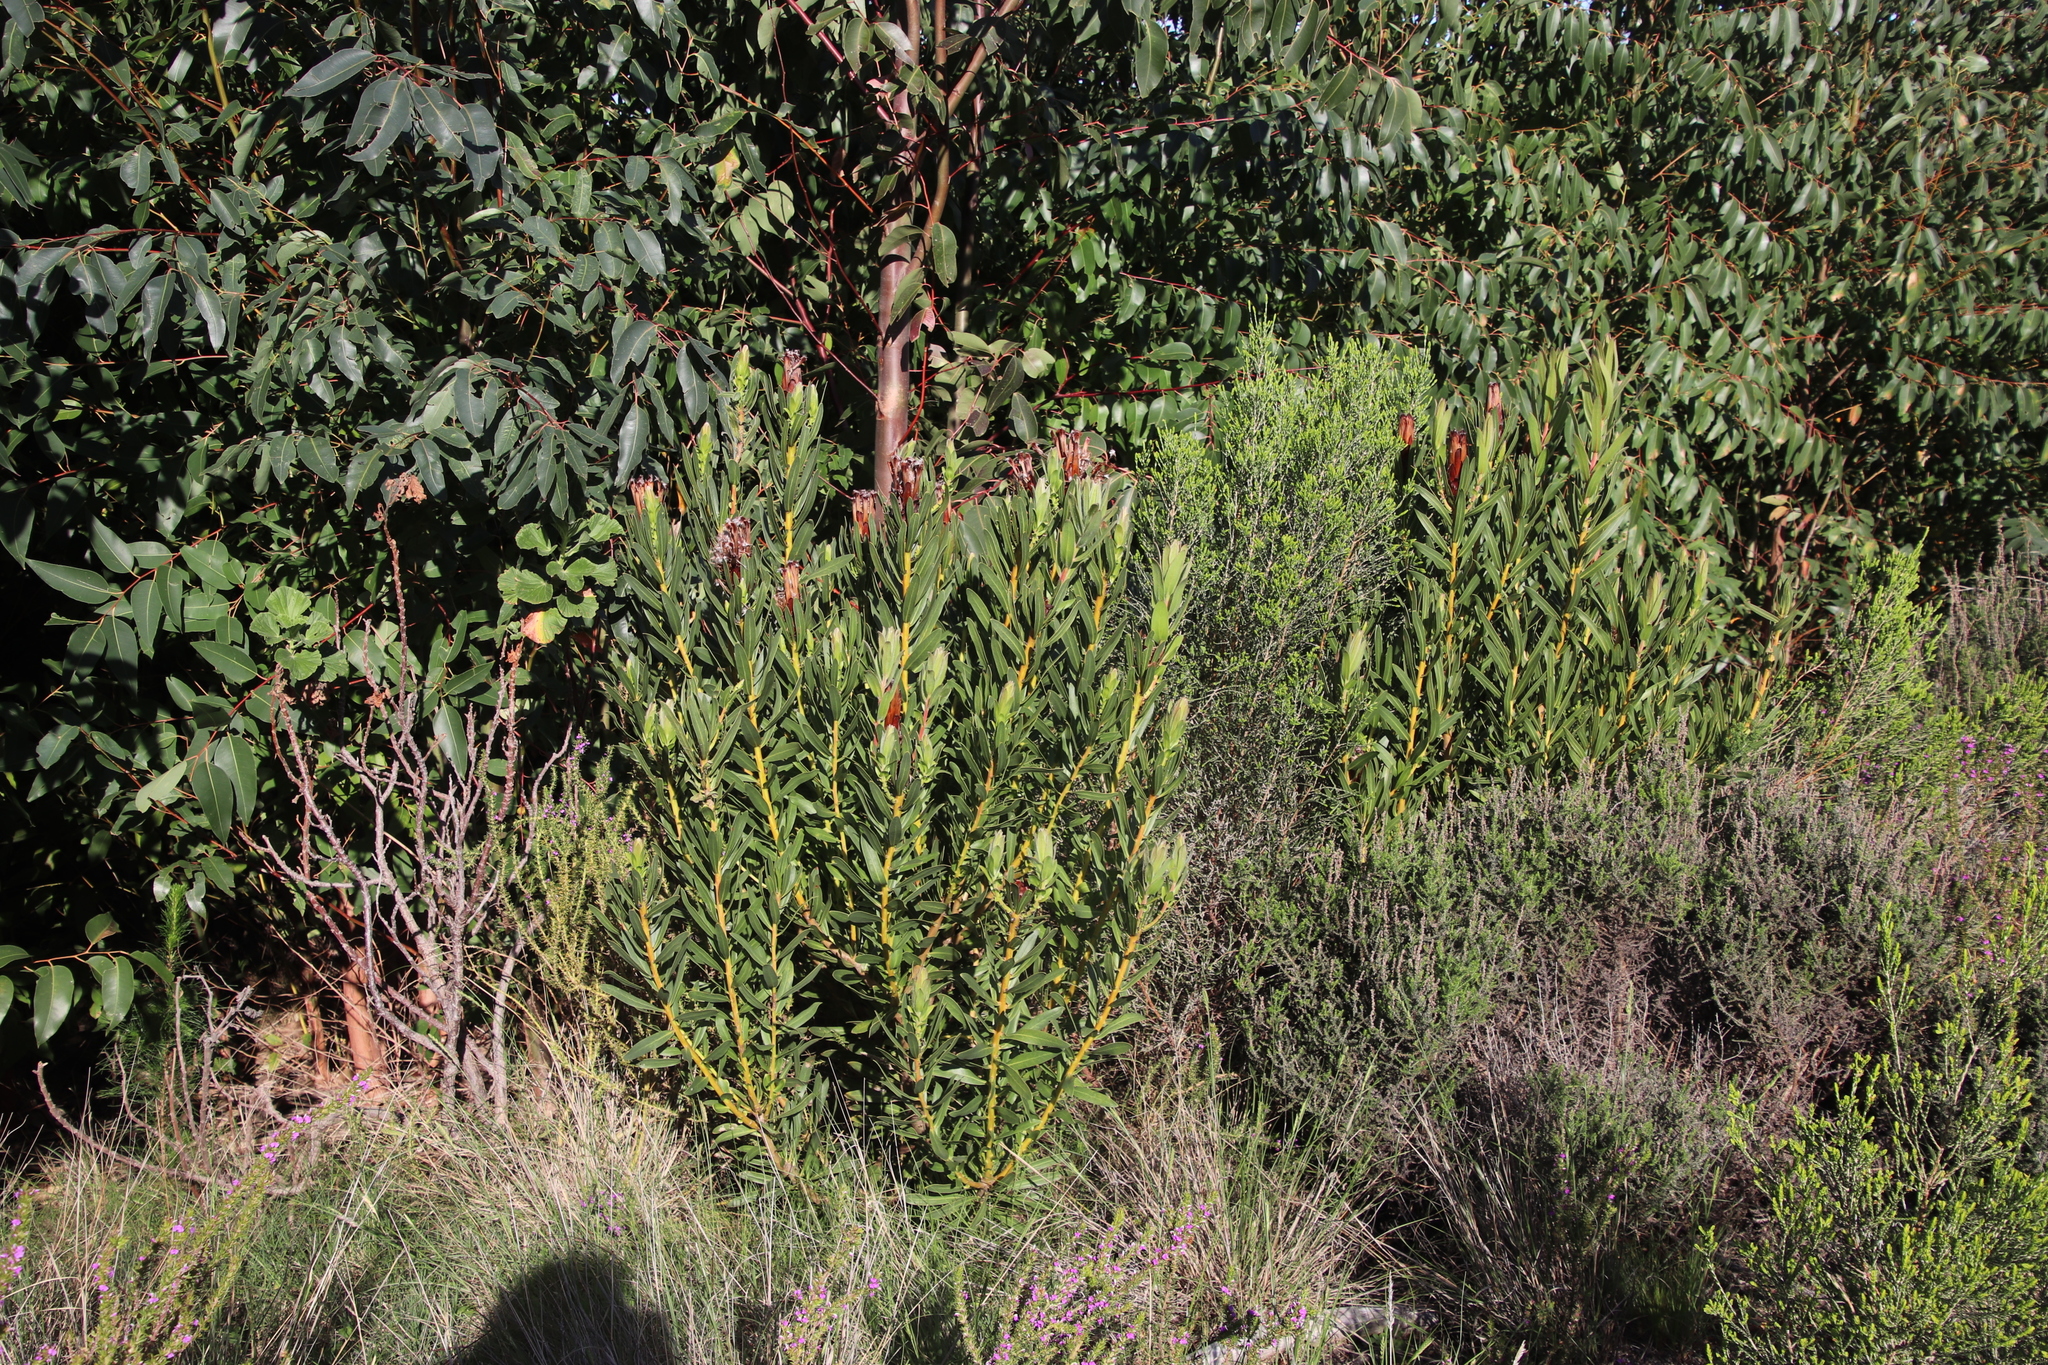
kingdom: Plantae
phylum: Tracheophyta
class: Magnoliopsida
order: Proteales
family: Proteaceae
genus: Protea
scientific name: Protea lepidocarpodendron
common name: Black-bearded protea
